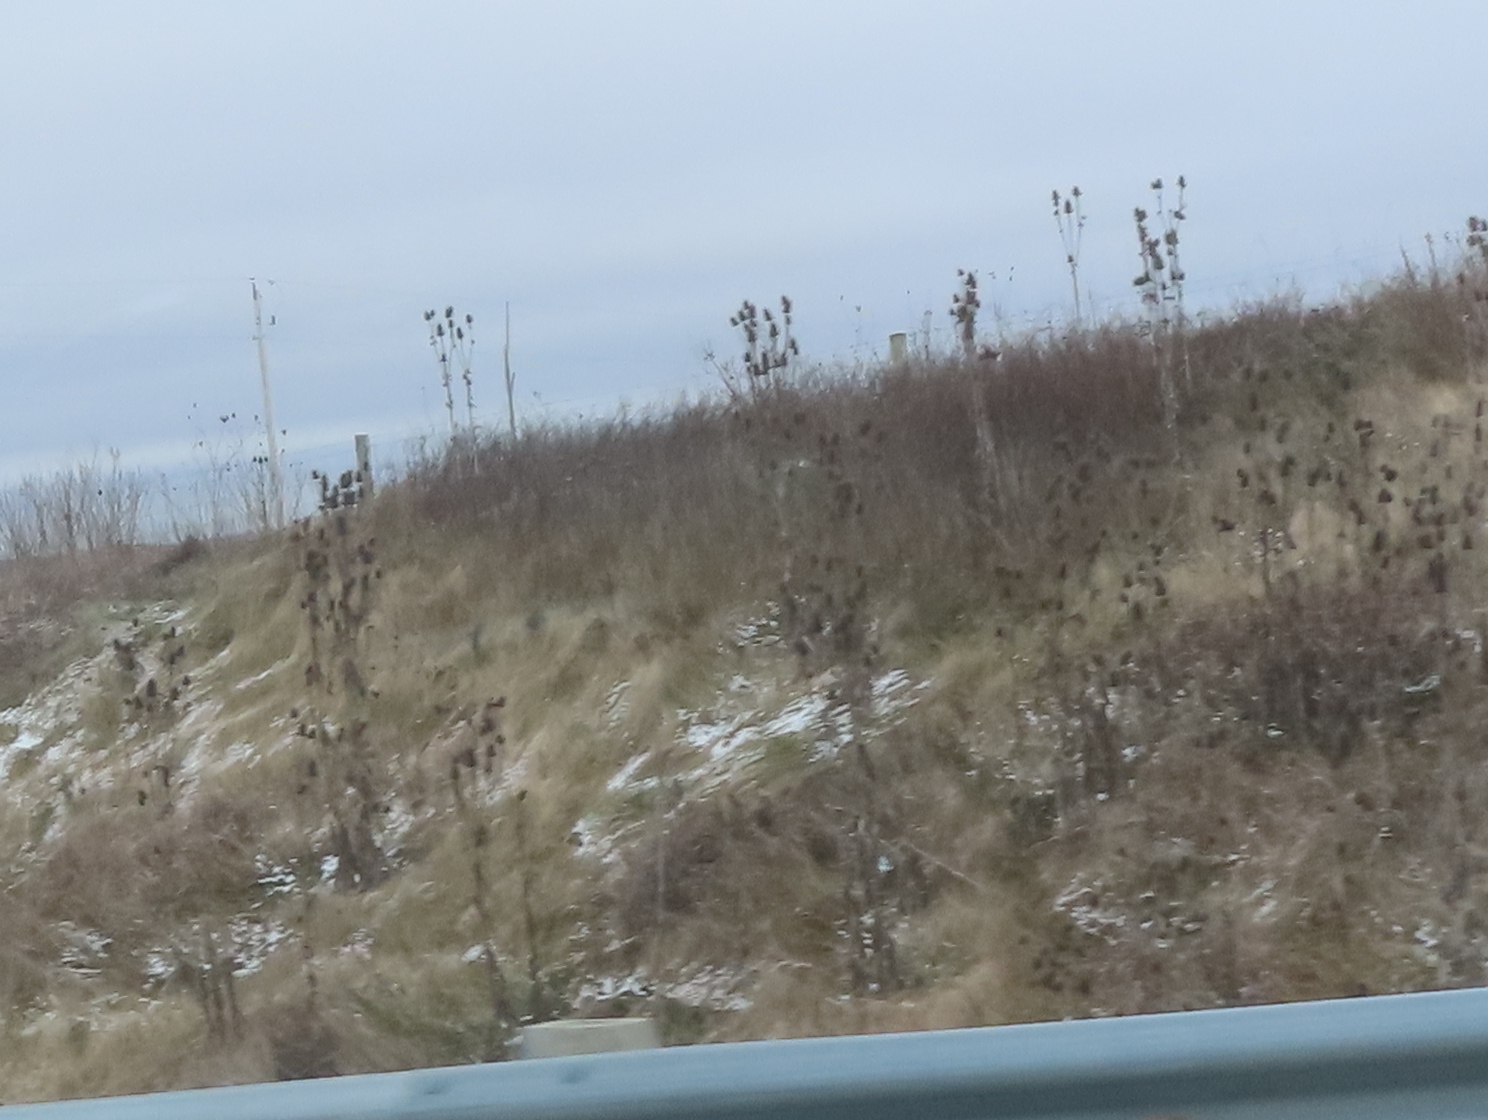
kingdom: Plantae
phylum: Tracheophyta
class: Magnoliopsida
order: Dipsacales
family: Caprifoliaceae
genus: Dipsacus
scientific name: Dipsacus laciniatus
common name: Cut-leaved teasel
